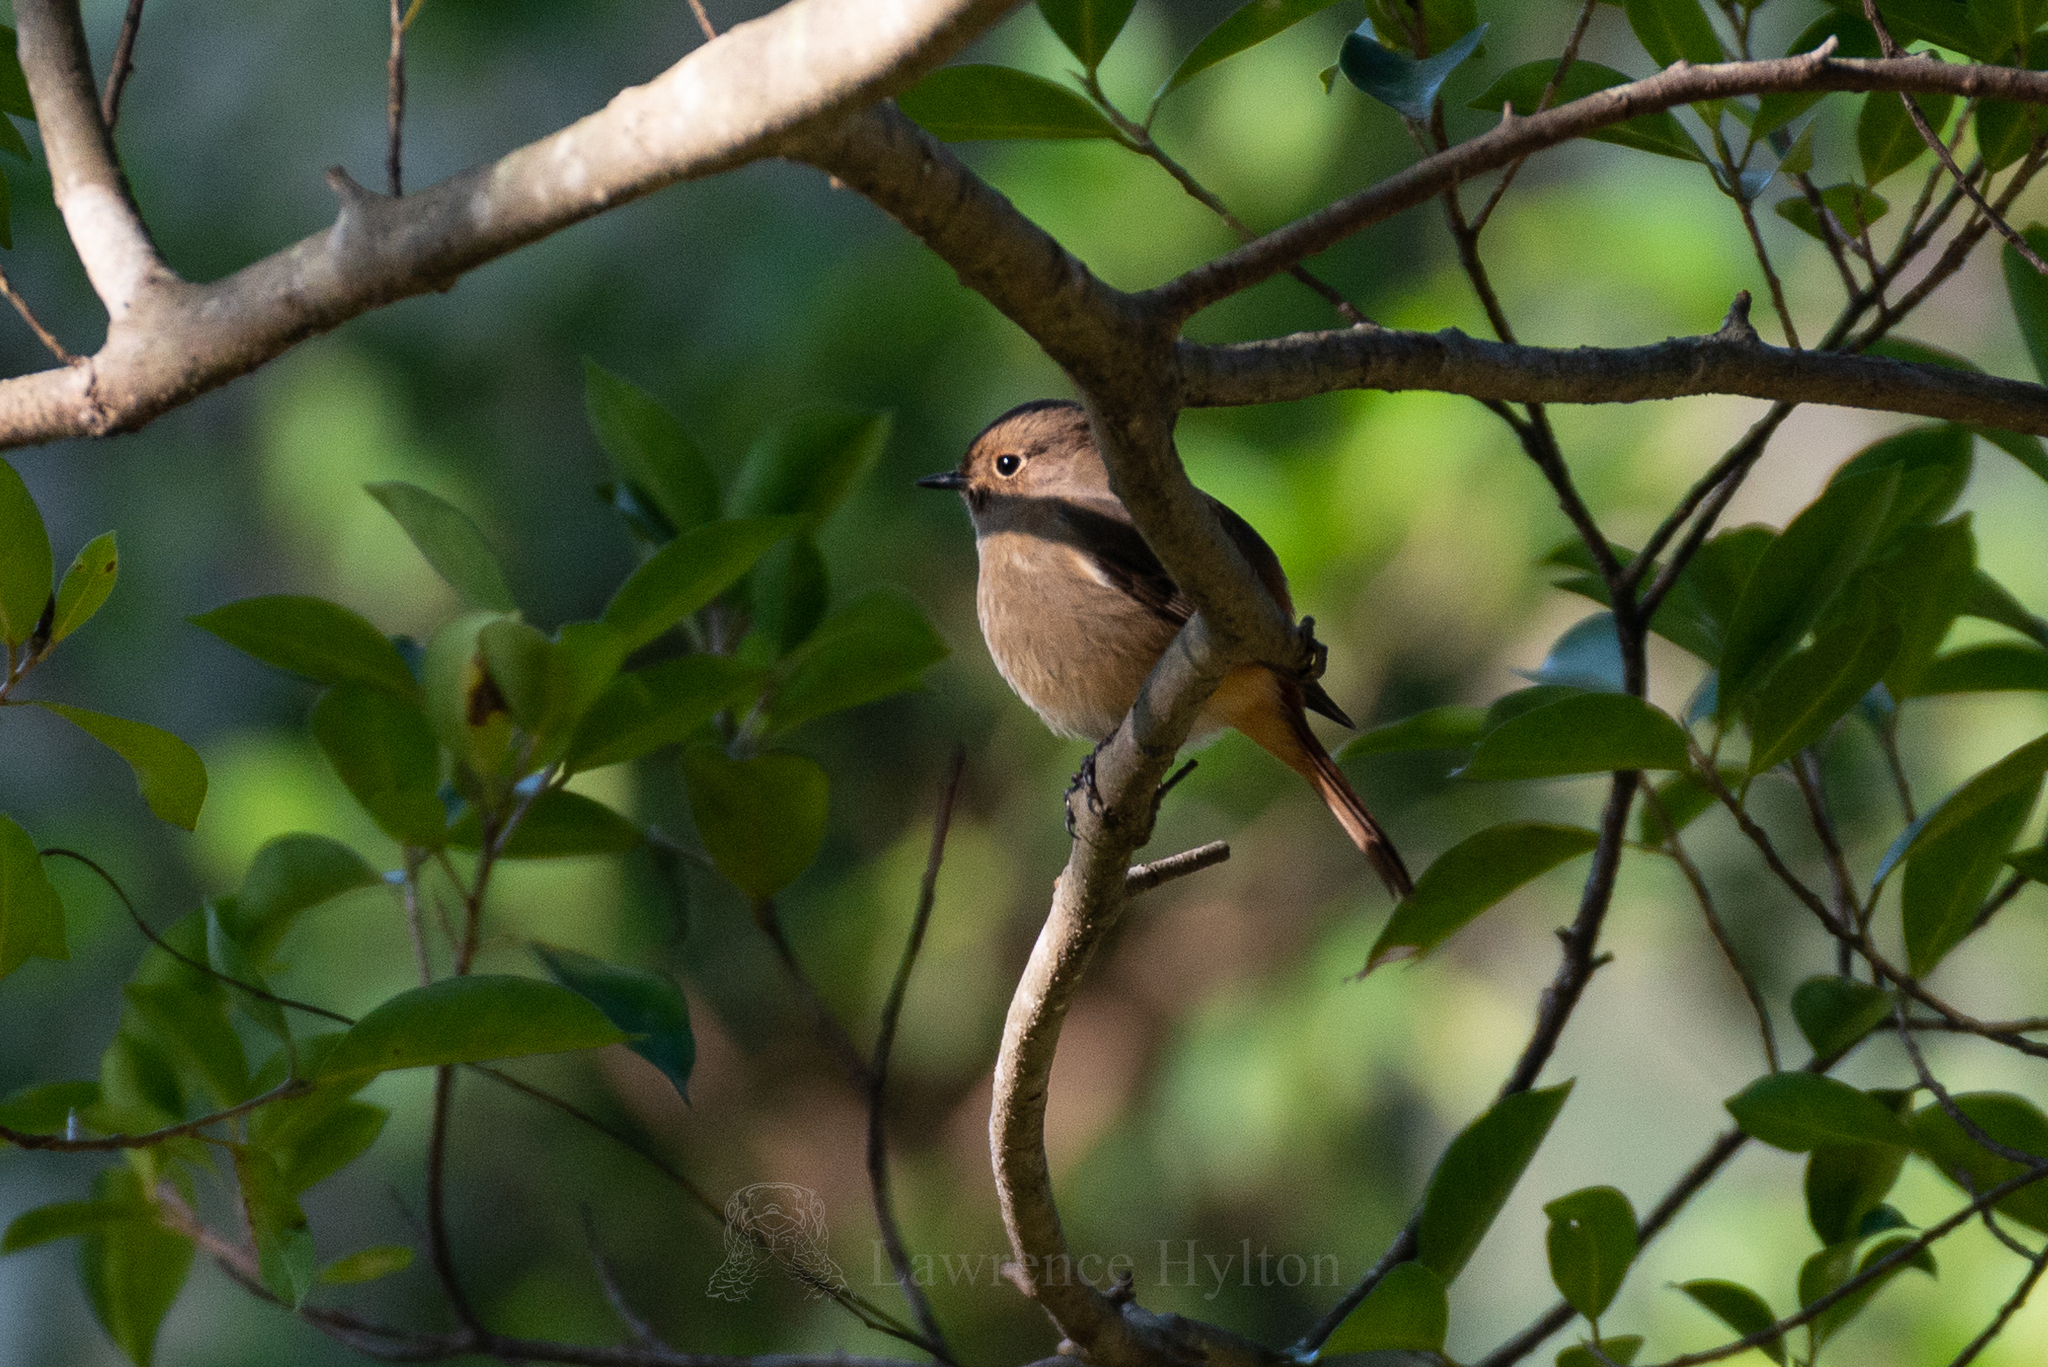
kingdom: Animalia
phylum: Chordata
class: Aves
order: Passeriformes
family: Muscicapidae
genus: Phoenicurus
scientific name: Phoenicurus auroreus
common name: Daurian redstart
